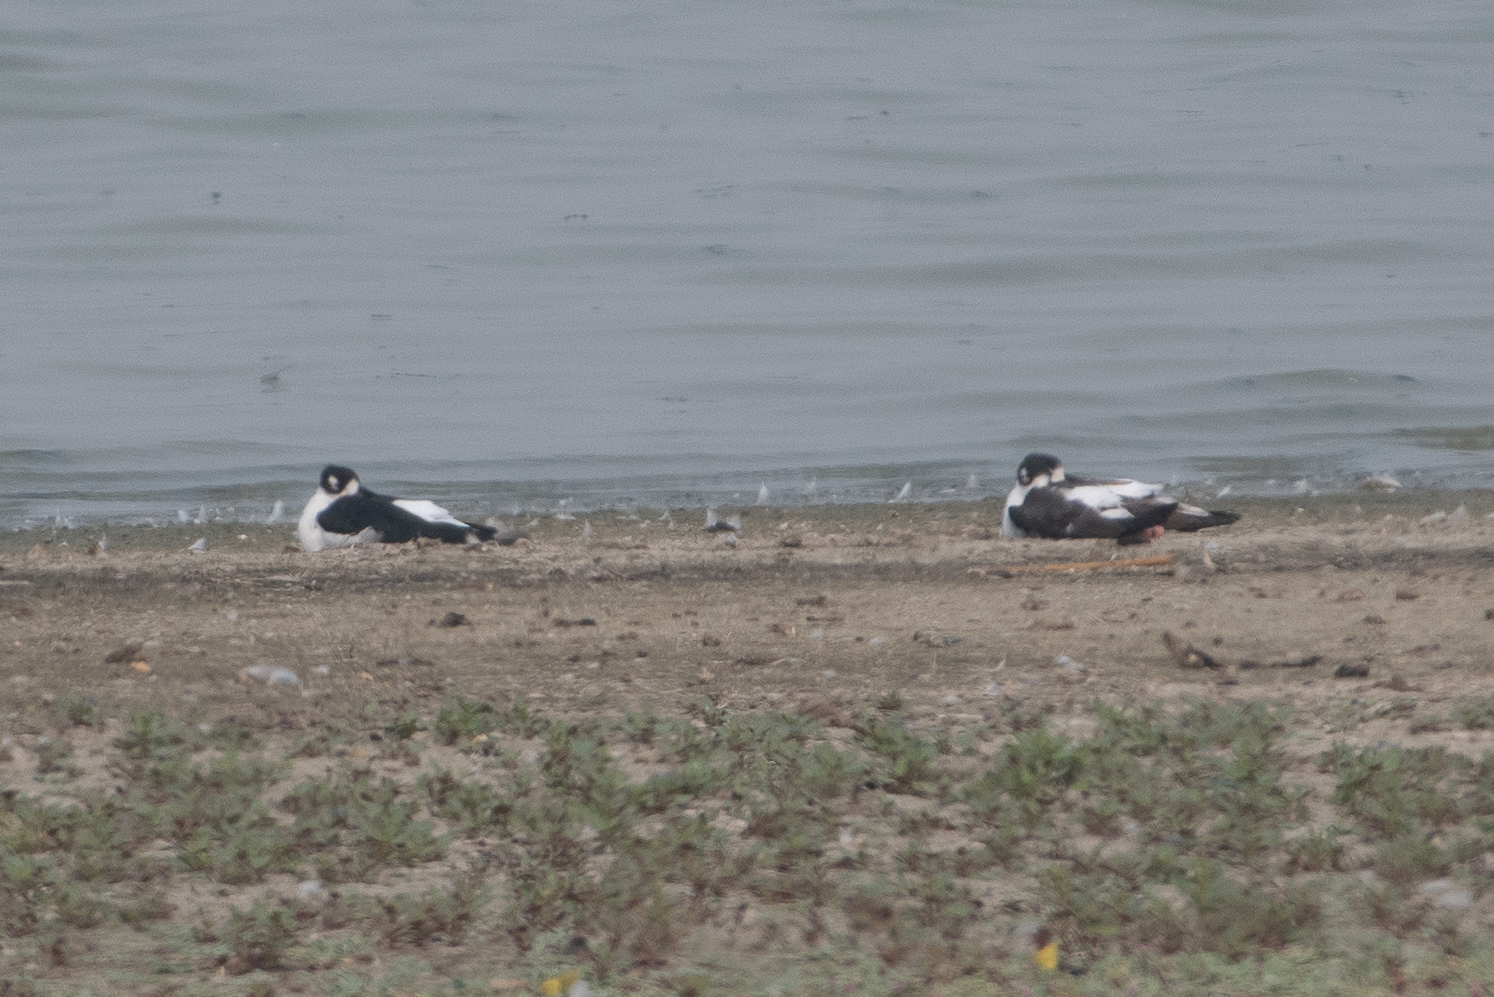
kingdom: Animalia
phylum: Chordata
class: Aves
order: Charadriiformes
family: Recurvirostridae
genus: Himantopus
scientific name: Himantopus mexicanus
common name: Black-necked stilt
